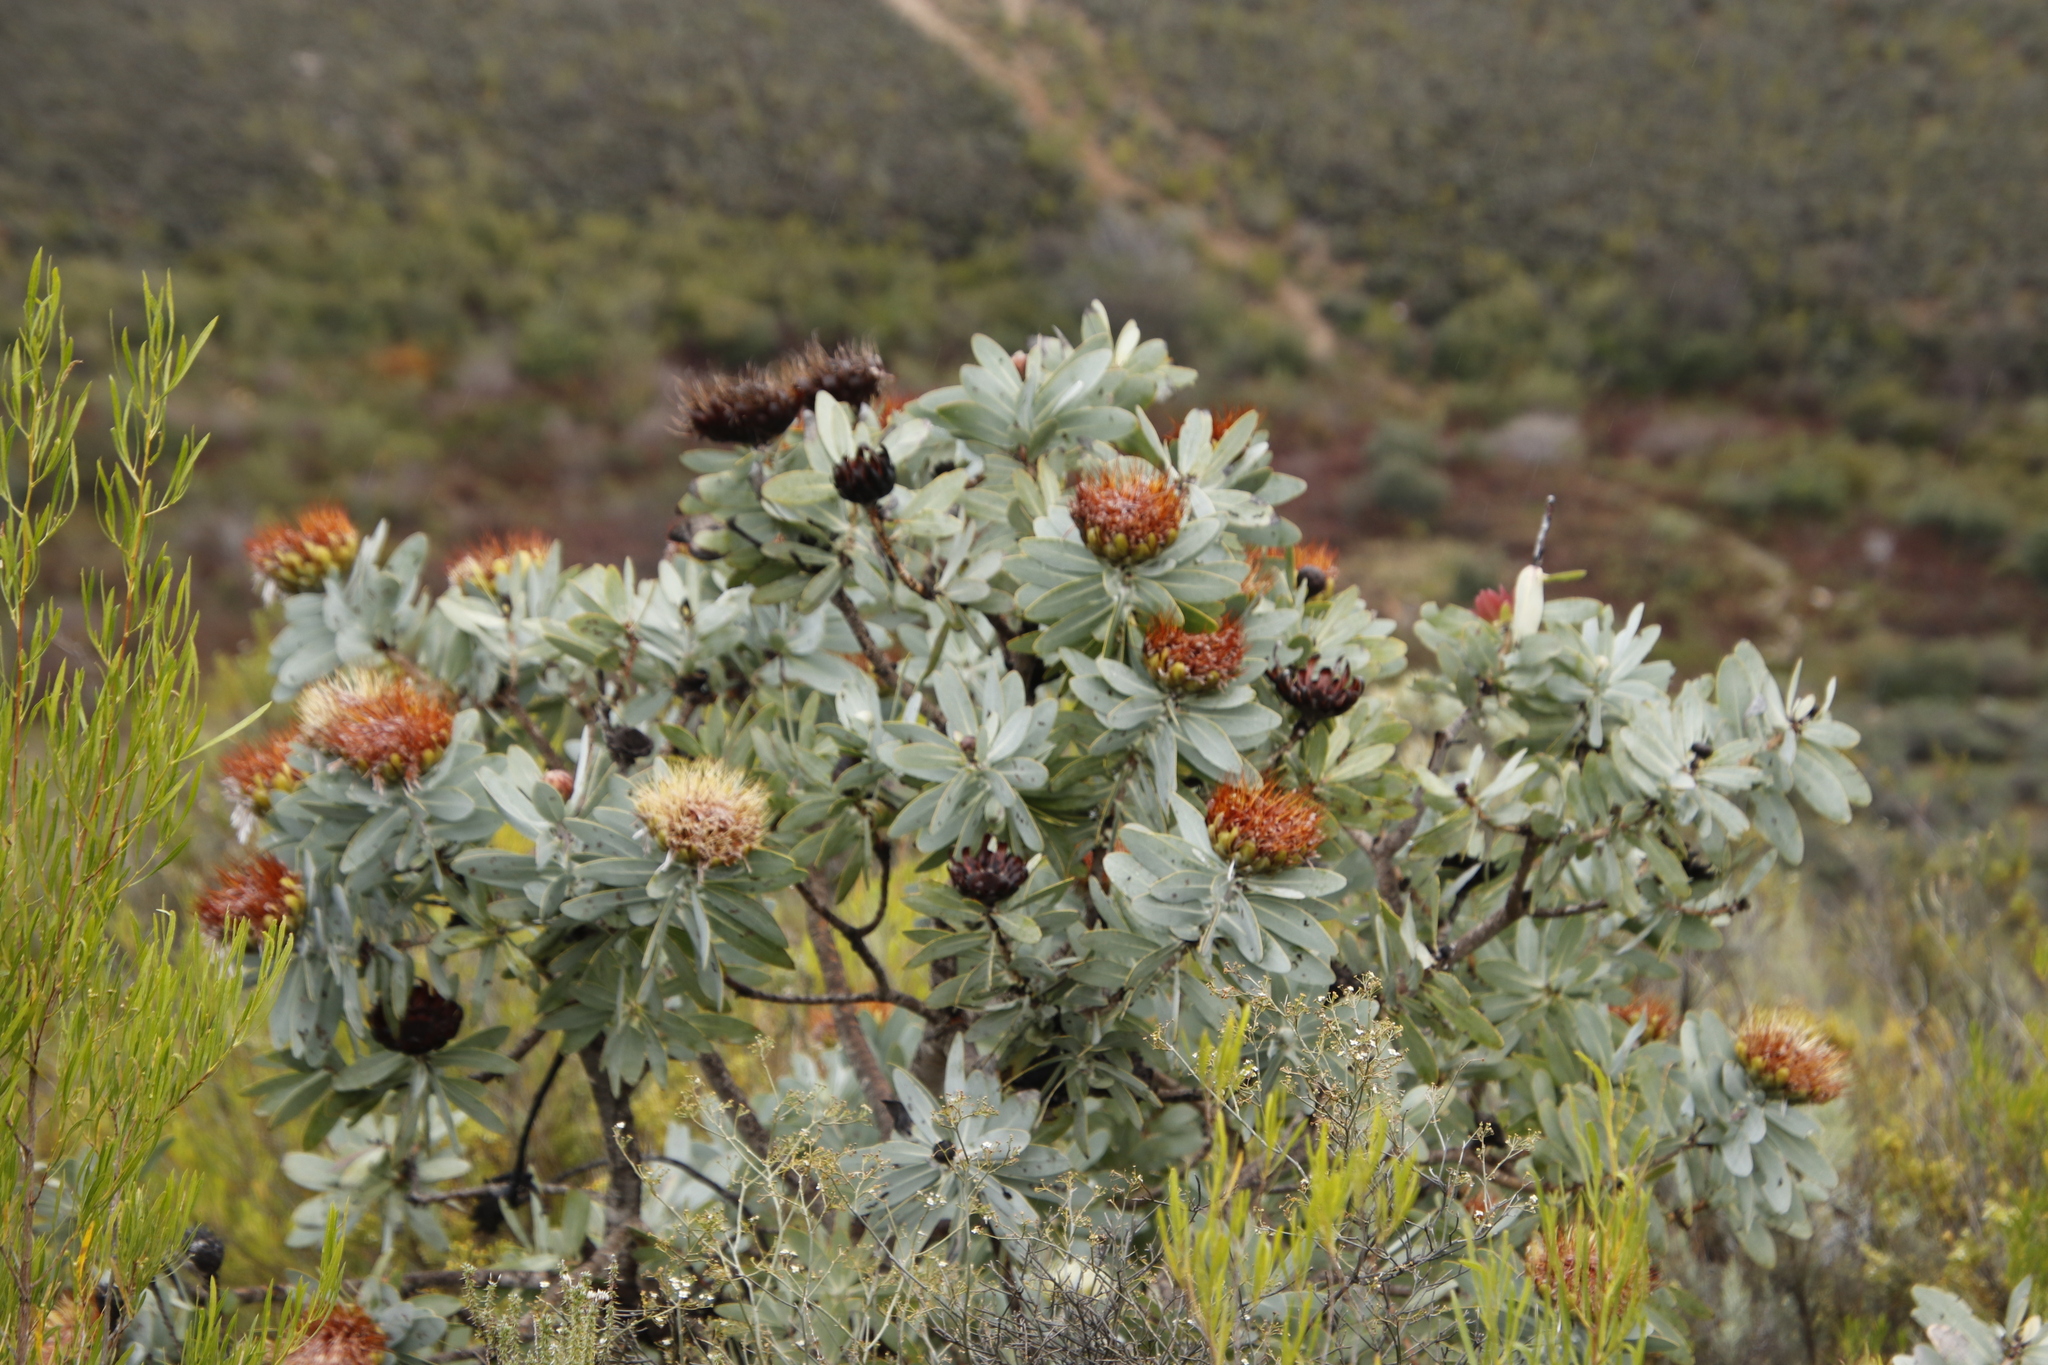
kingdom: Plantae
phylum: Tracheophyta
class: Magnoliopsida
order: Proteales
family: Proteaceae
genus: Protea
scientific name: Protea nitida
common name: Tree protea
